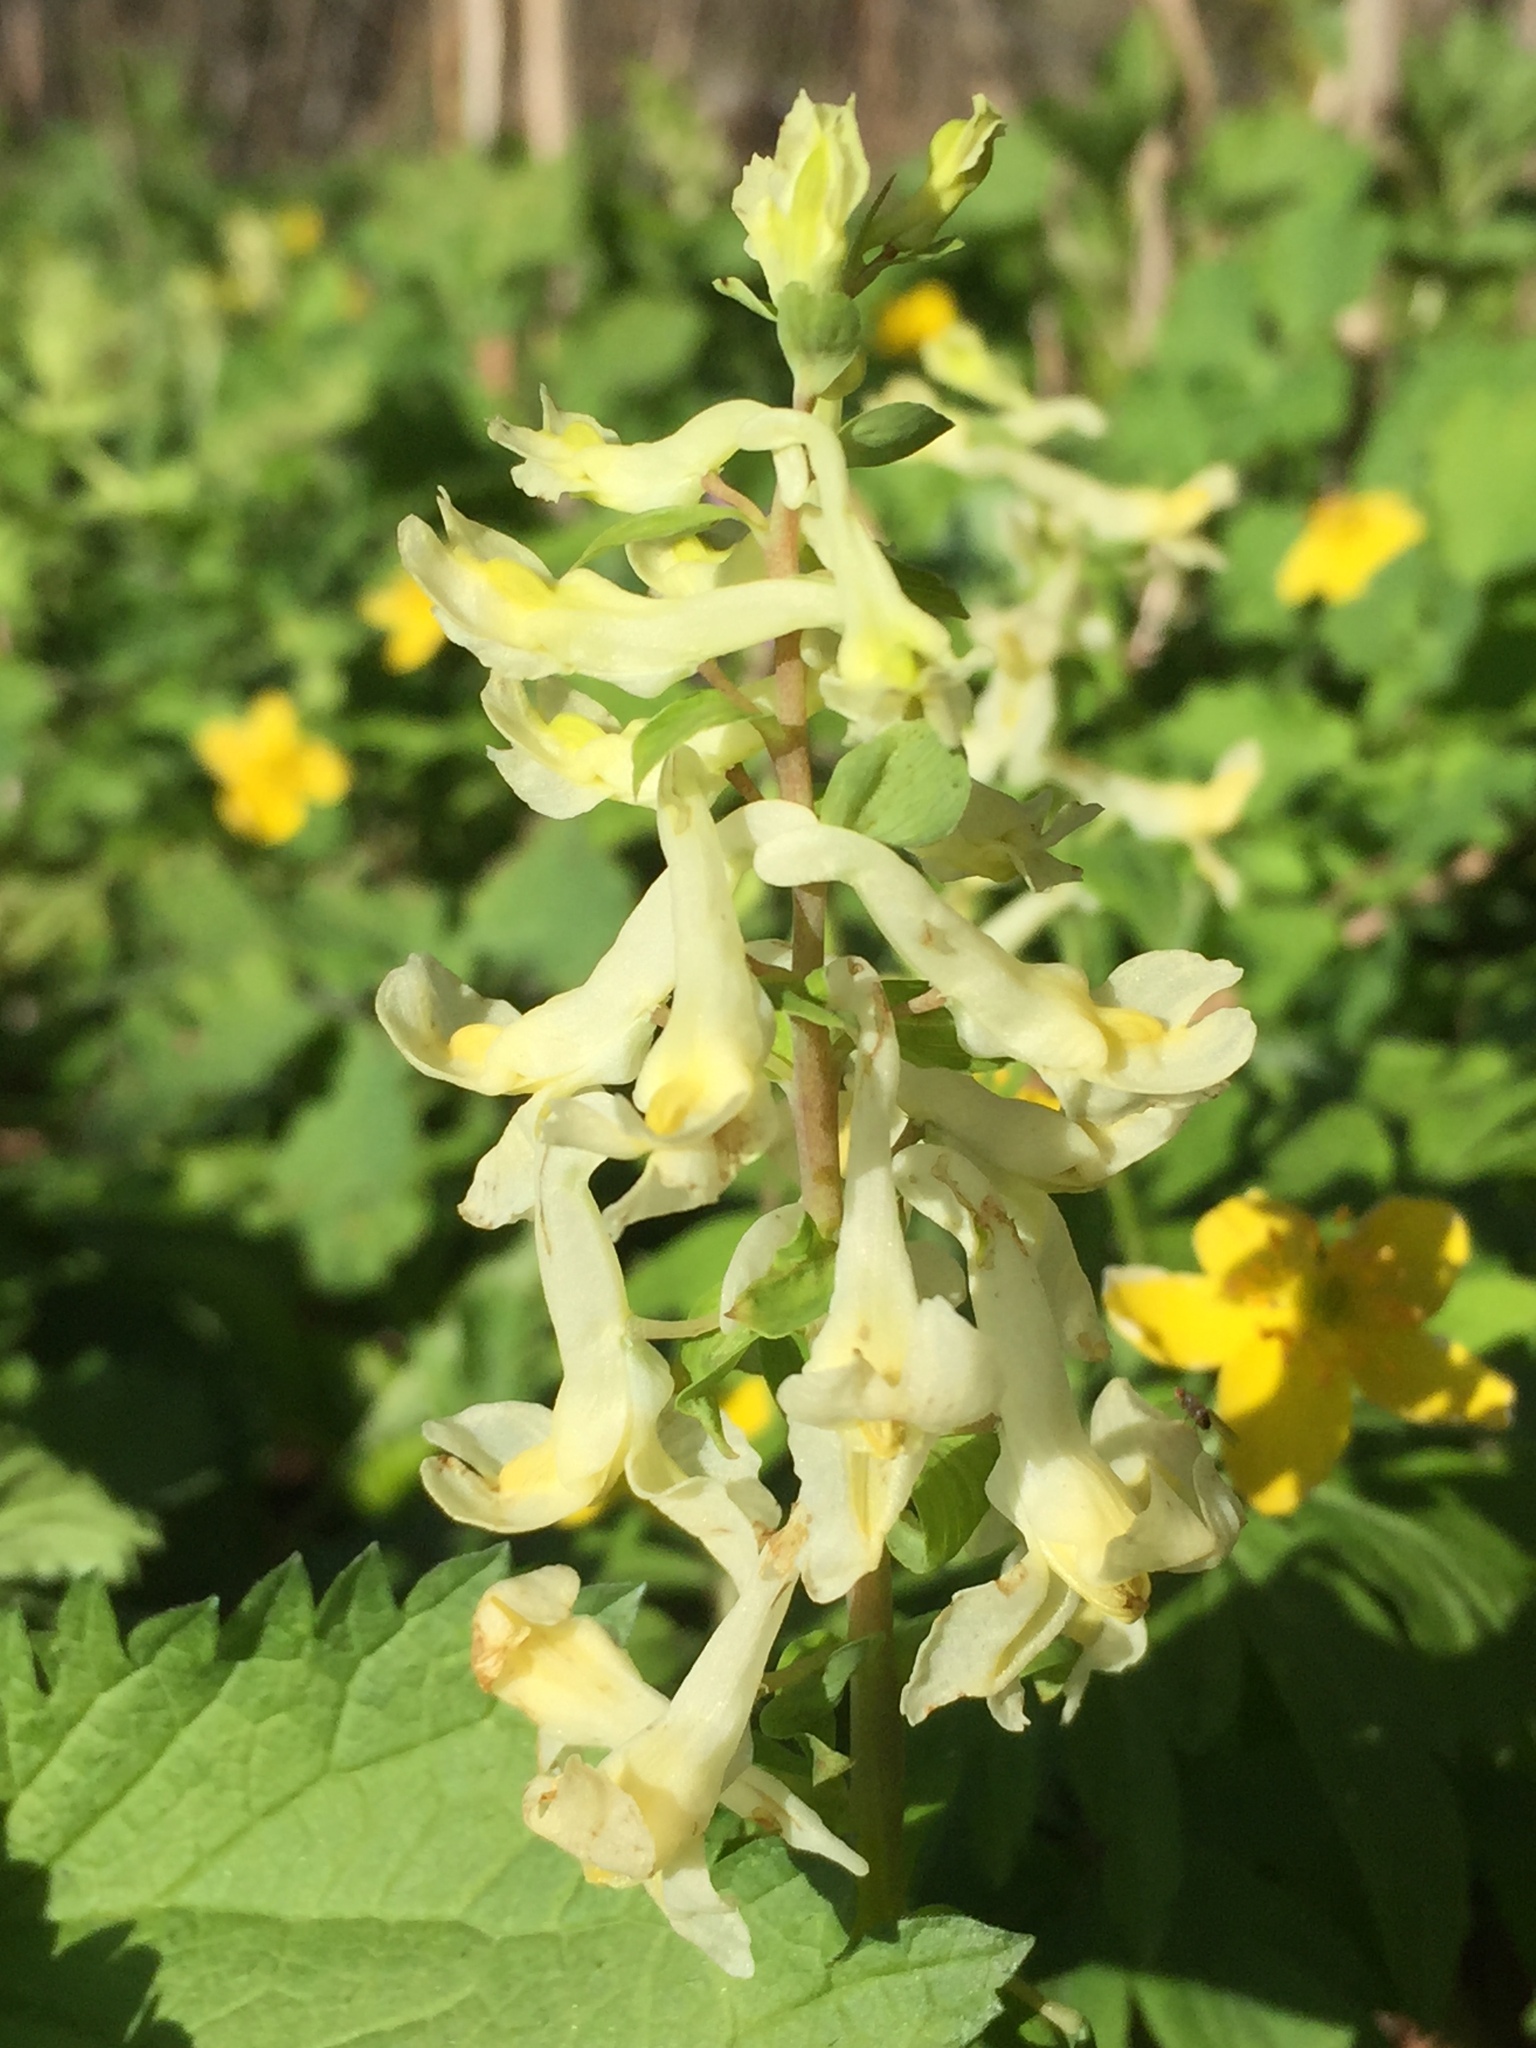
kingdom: Plantae
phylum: Tracheophyta
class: Magnoliopsida
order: Ranunculales
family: Papaveraceae
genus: Corydalis
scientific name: Corydalis cava
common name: Hollowroot
